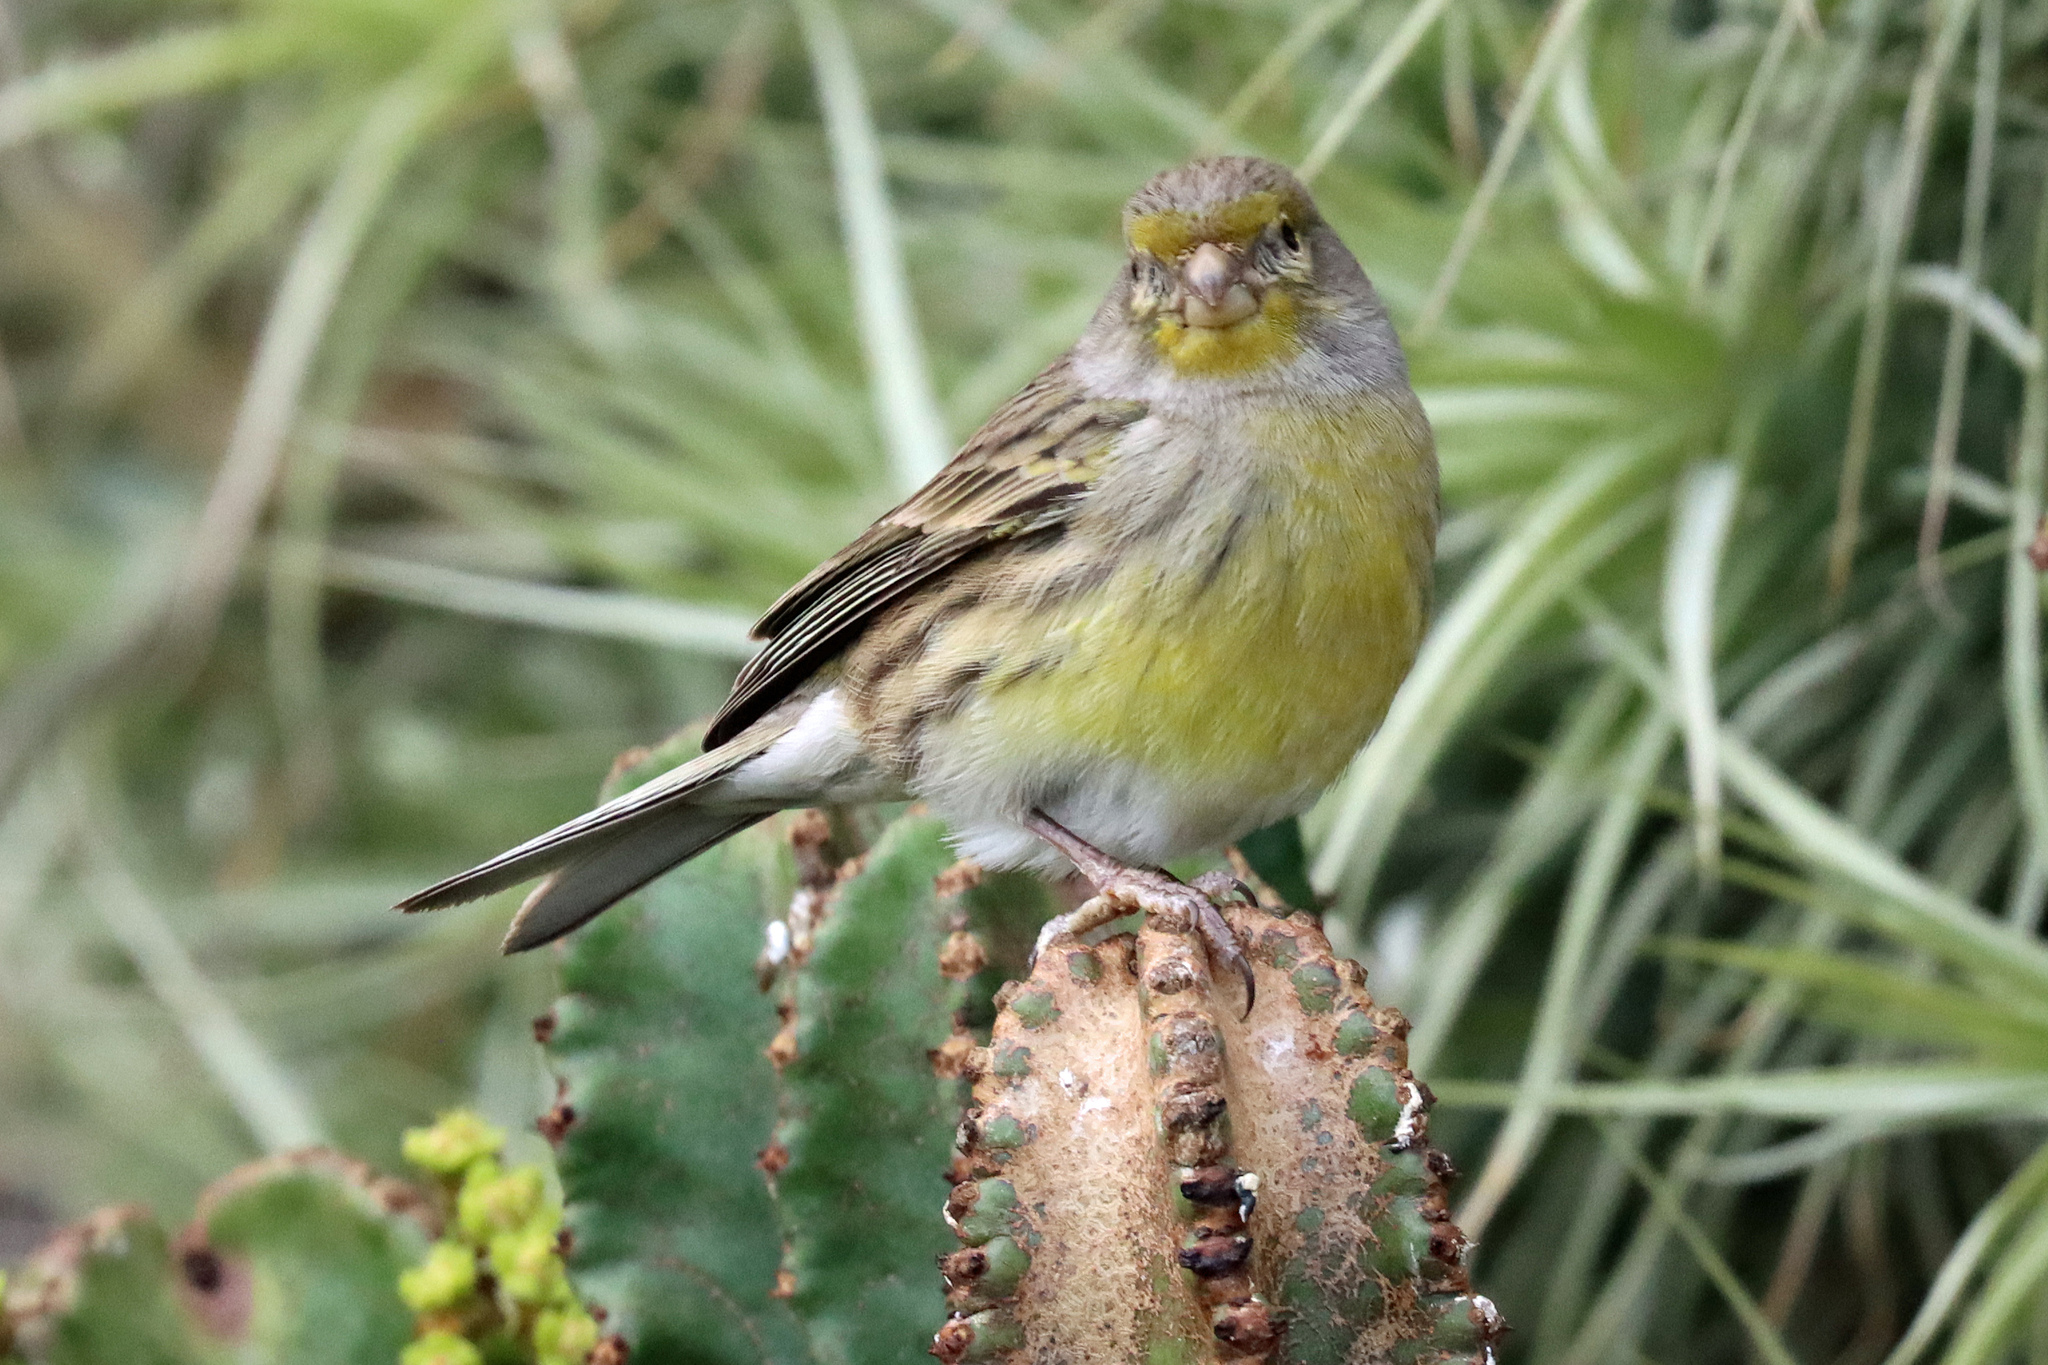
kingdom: Animalia
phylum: Chordata
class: Aves
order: Passeriformes
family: Fringillidae
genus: Serinus
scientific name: Serinus canaria
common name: Atlantic canary
